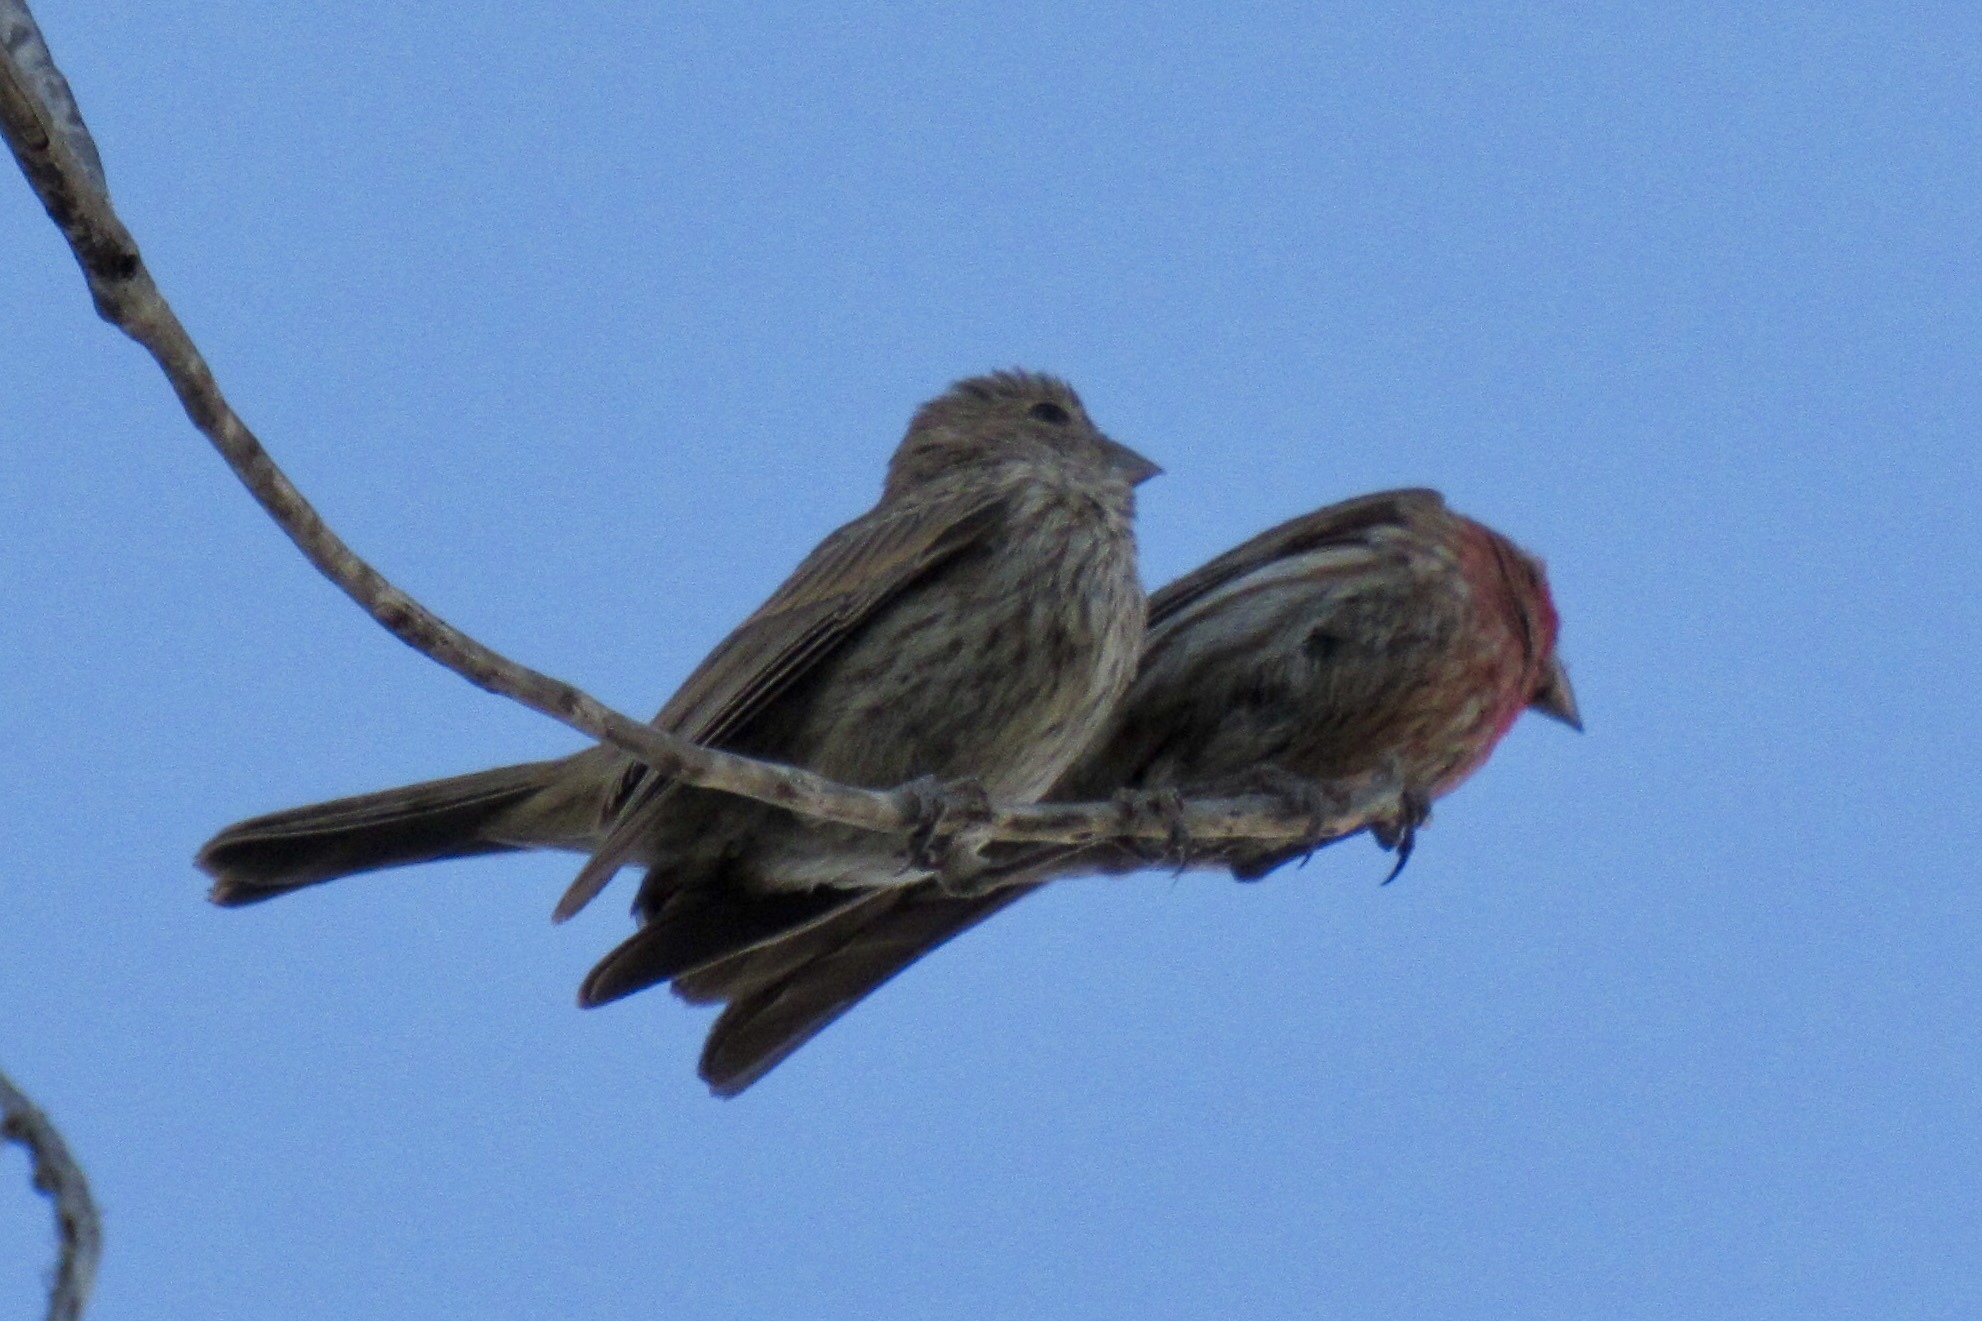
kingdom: Animalia
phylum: Chordata
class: Aves
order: Passeriformes
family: Fringillidae
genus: Haemorhous
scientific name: Haemorhous mexicanus
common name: House finch
